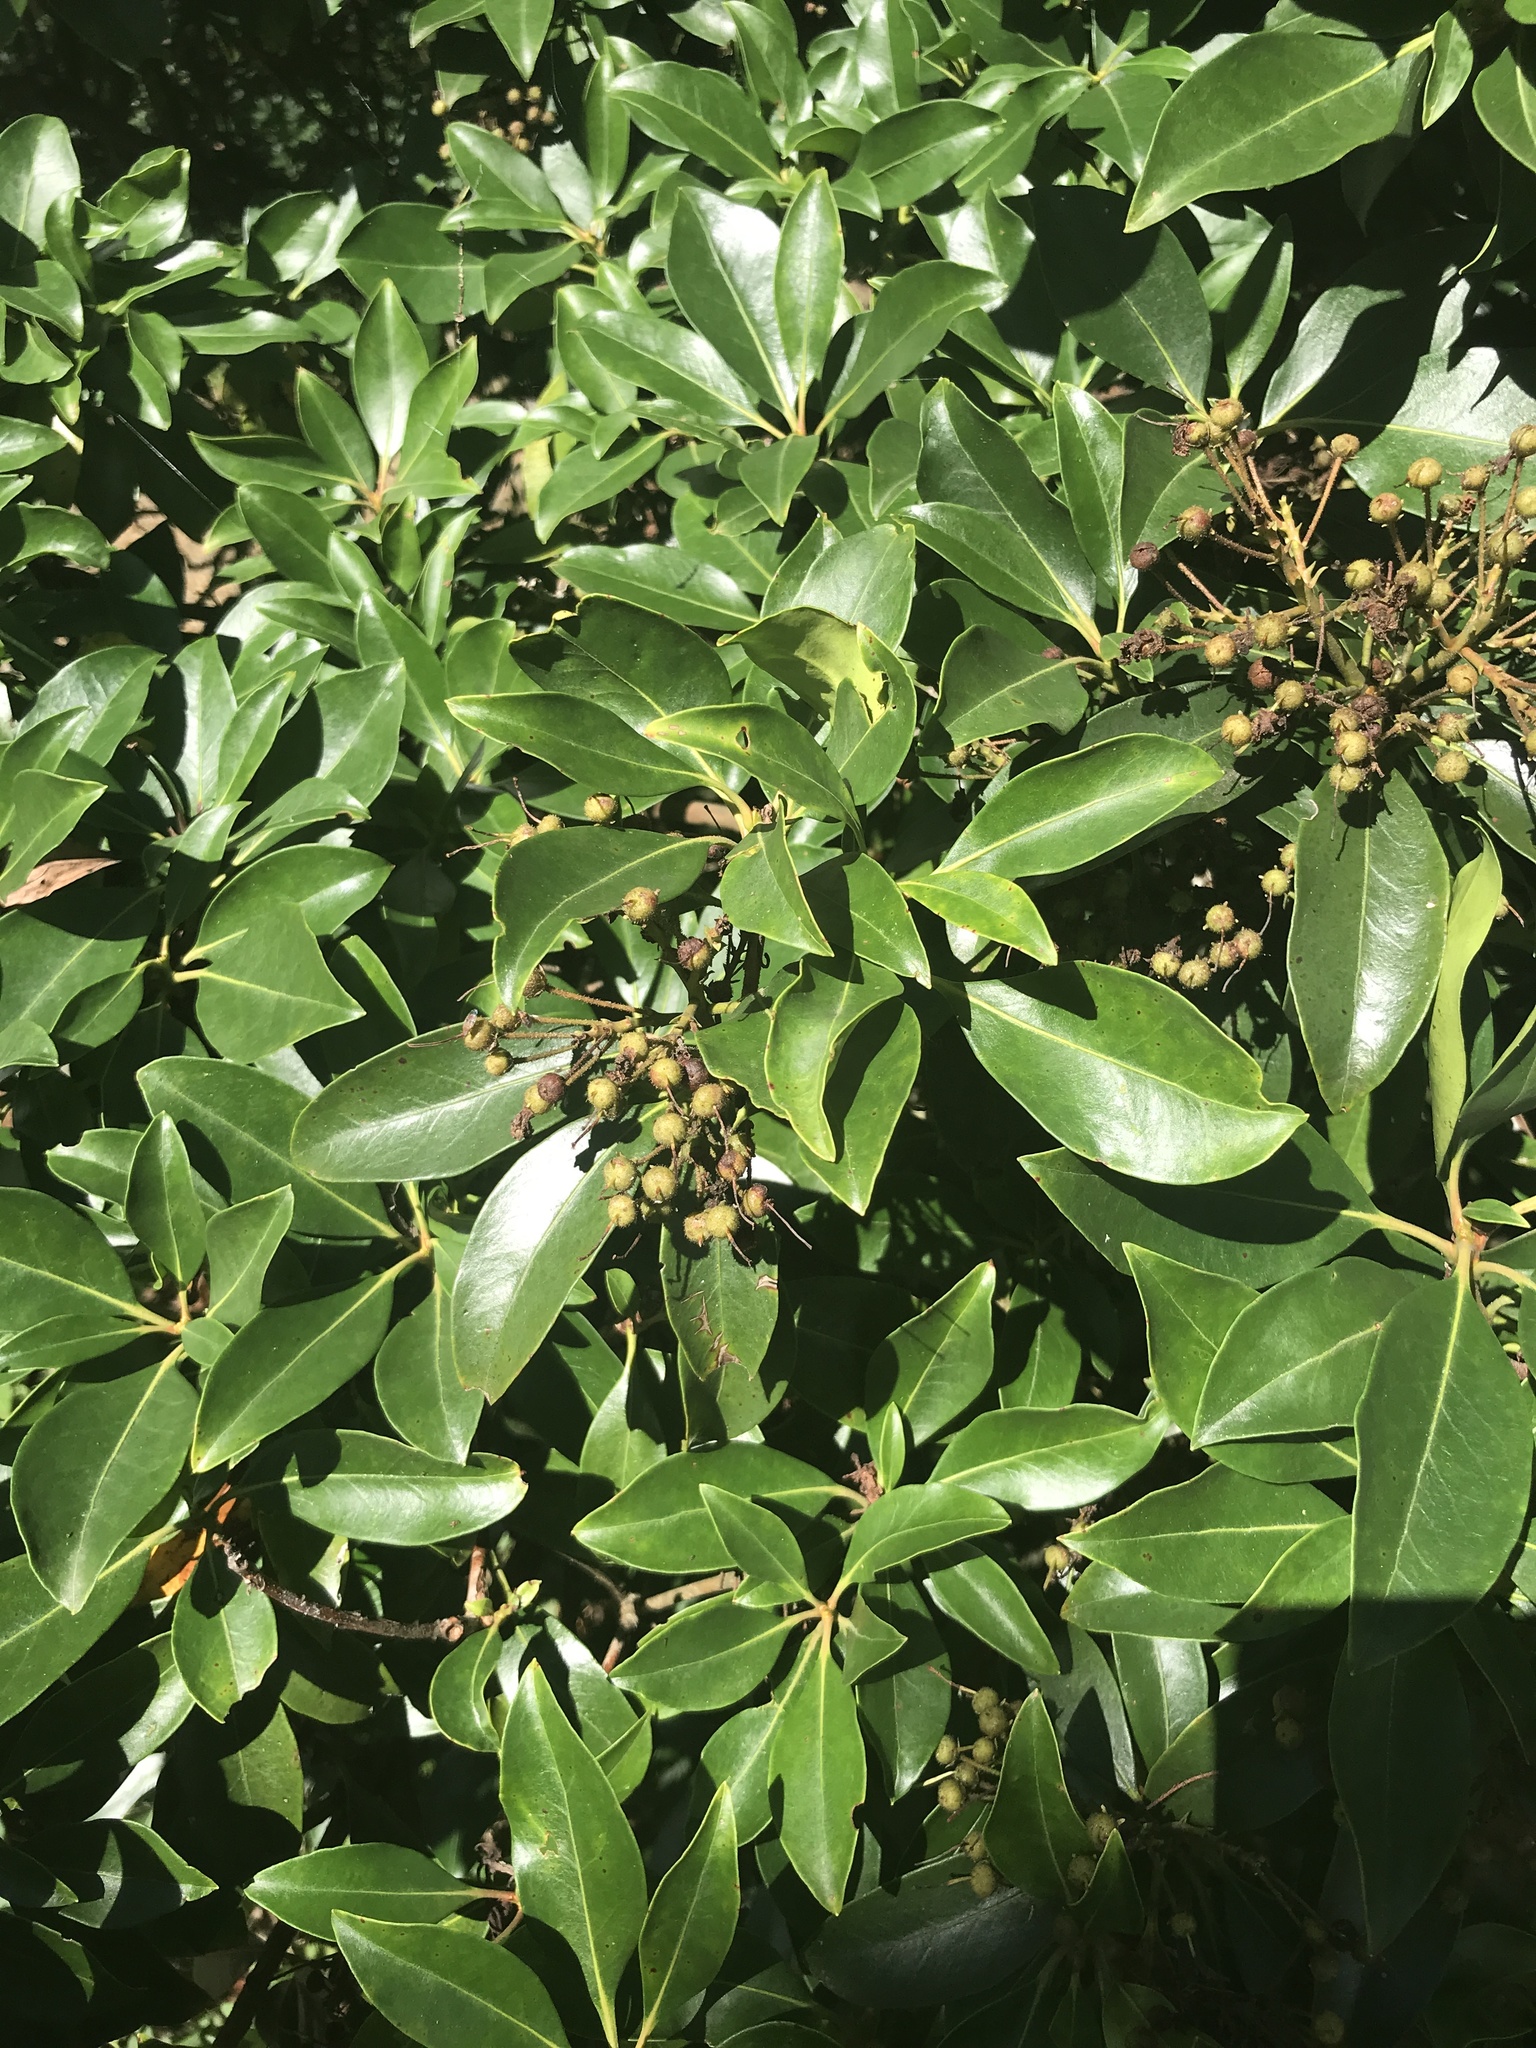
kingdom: Plantae
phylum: Tracheophyta
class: Magnoliopsida
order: Ericales
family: Ericaceae
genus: Kalmia
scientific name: Kalmia latifolia
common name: Mountain-laurel
